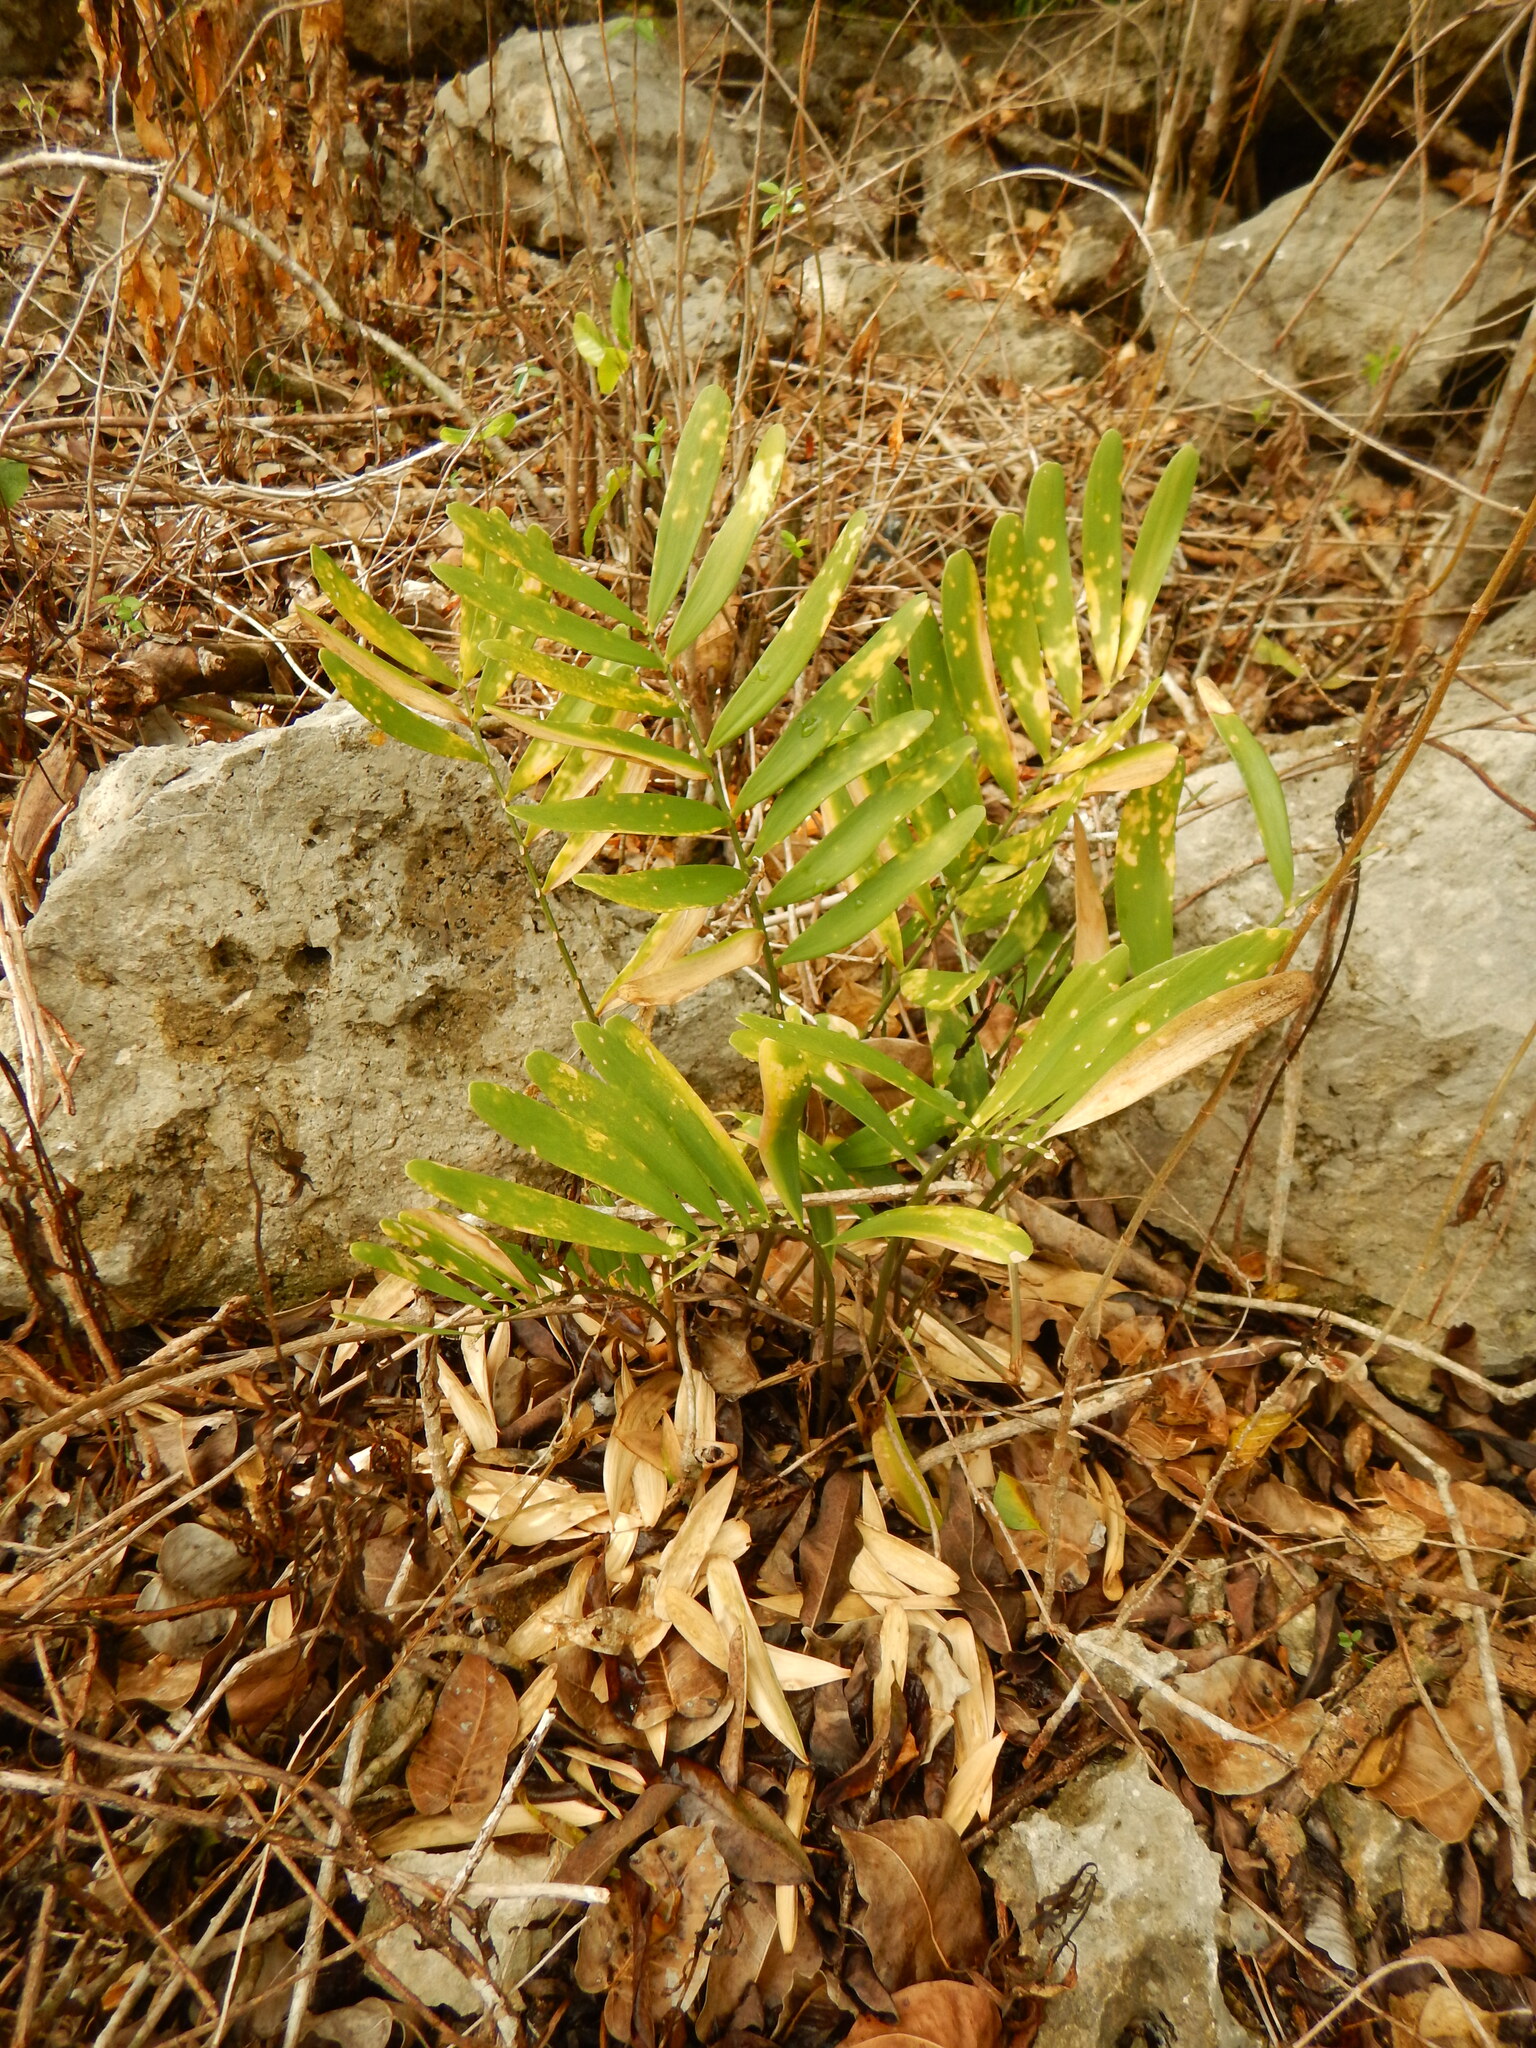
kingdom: Plantae
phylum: Tracheophyta
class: Cycadopsida
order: Cycadales
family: Zamiaceae
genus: Zamia
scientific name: Zamia erosa
